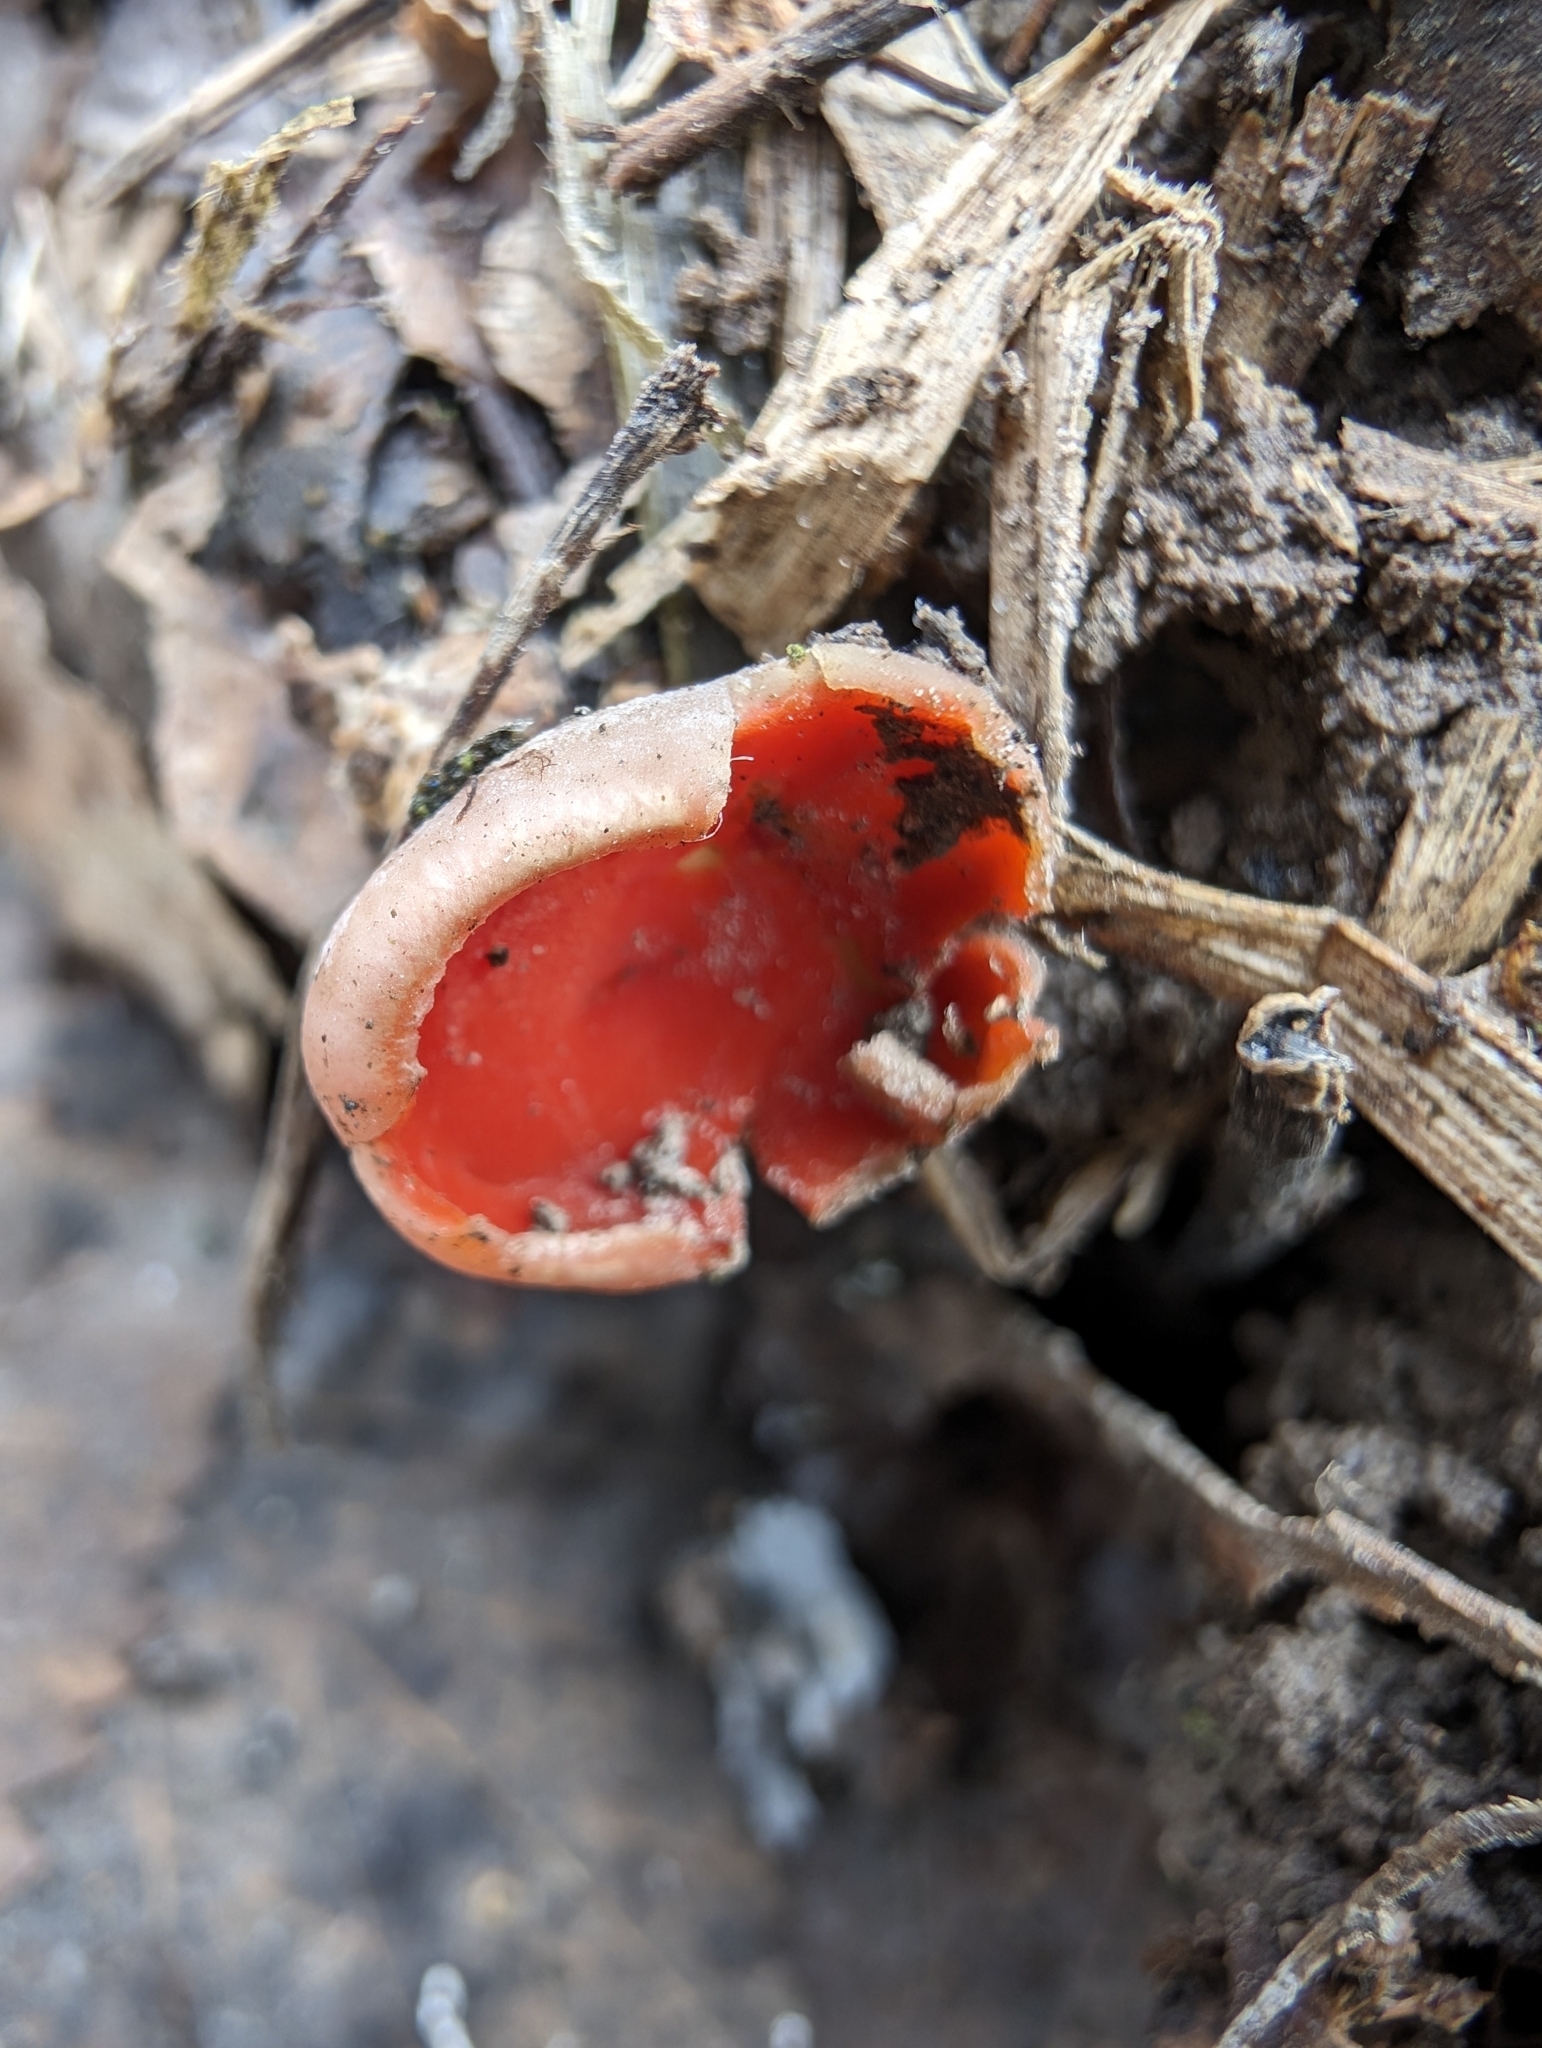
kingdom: Fungi
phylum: Ascomycota
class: Pezizomycetes
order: Pezizales
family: Sarcoscyphaceae
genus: Sarcoscypha
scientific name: Sarcoscypha austriaca
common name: Scarlet elfcup
